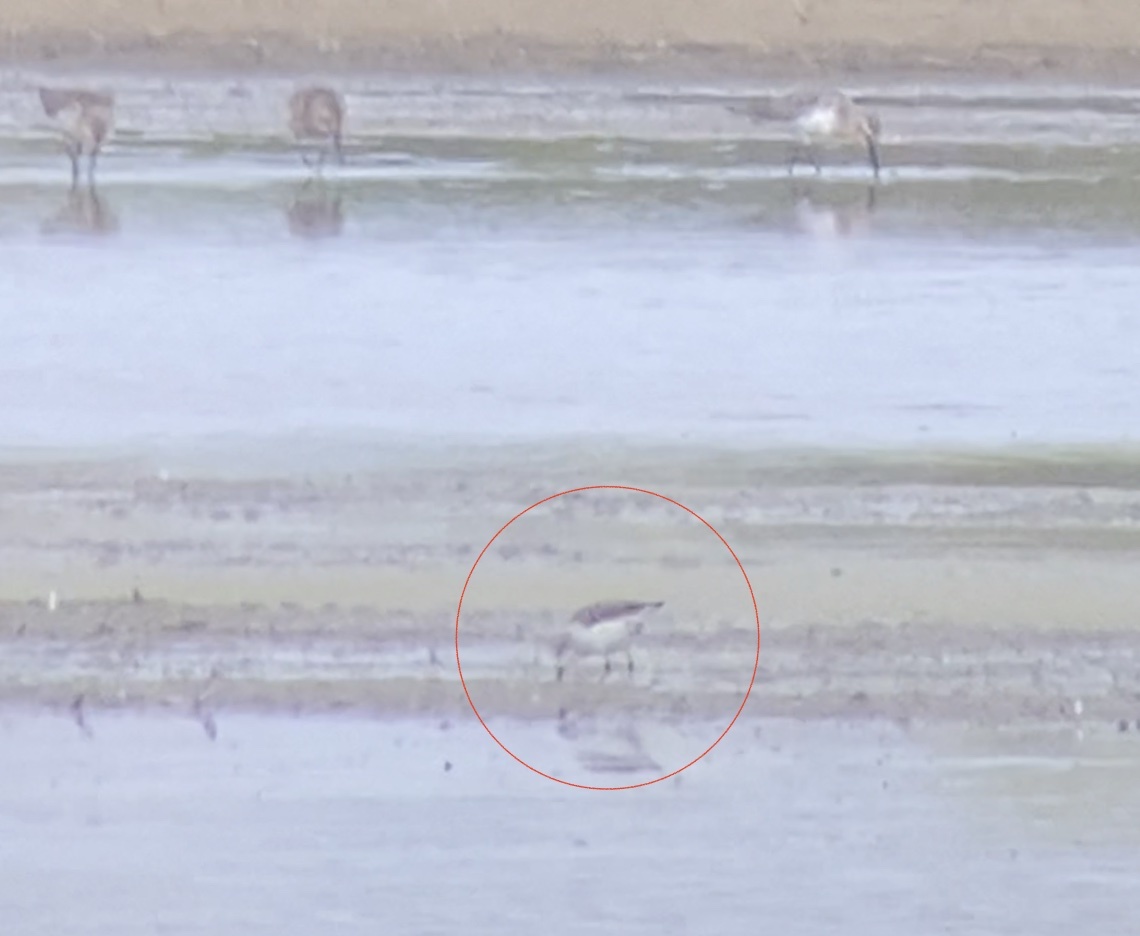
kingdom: Animalia
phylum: Chordata
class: Aves
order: Charadriiformes
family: Scolopacidae
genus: Calidris
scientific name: Calidris mauri
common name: Western sandpiper
